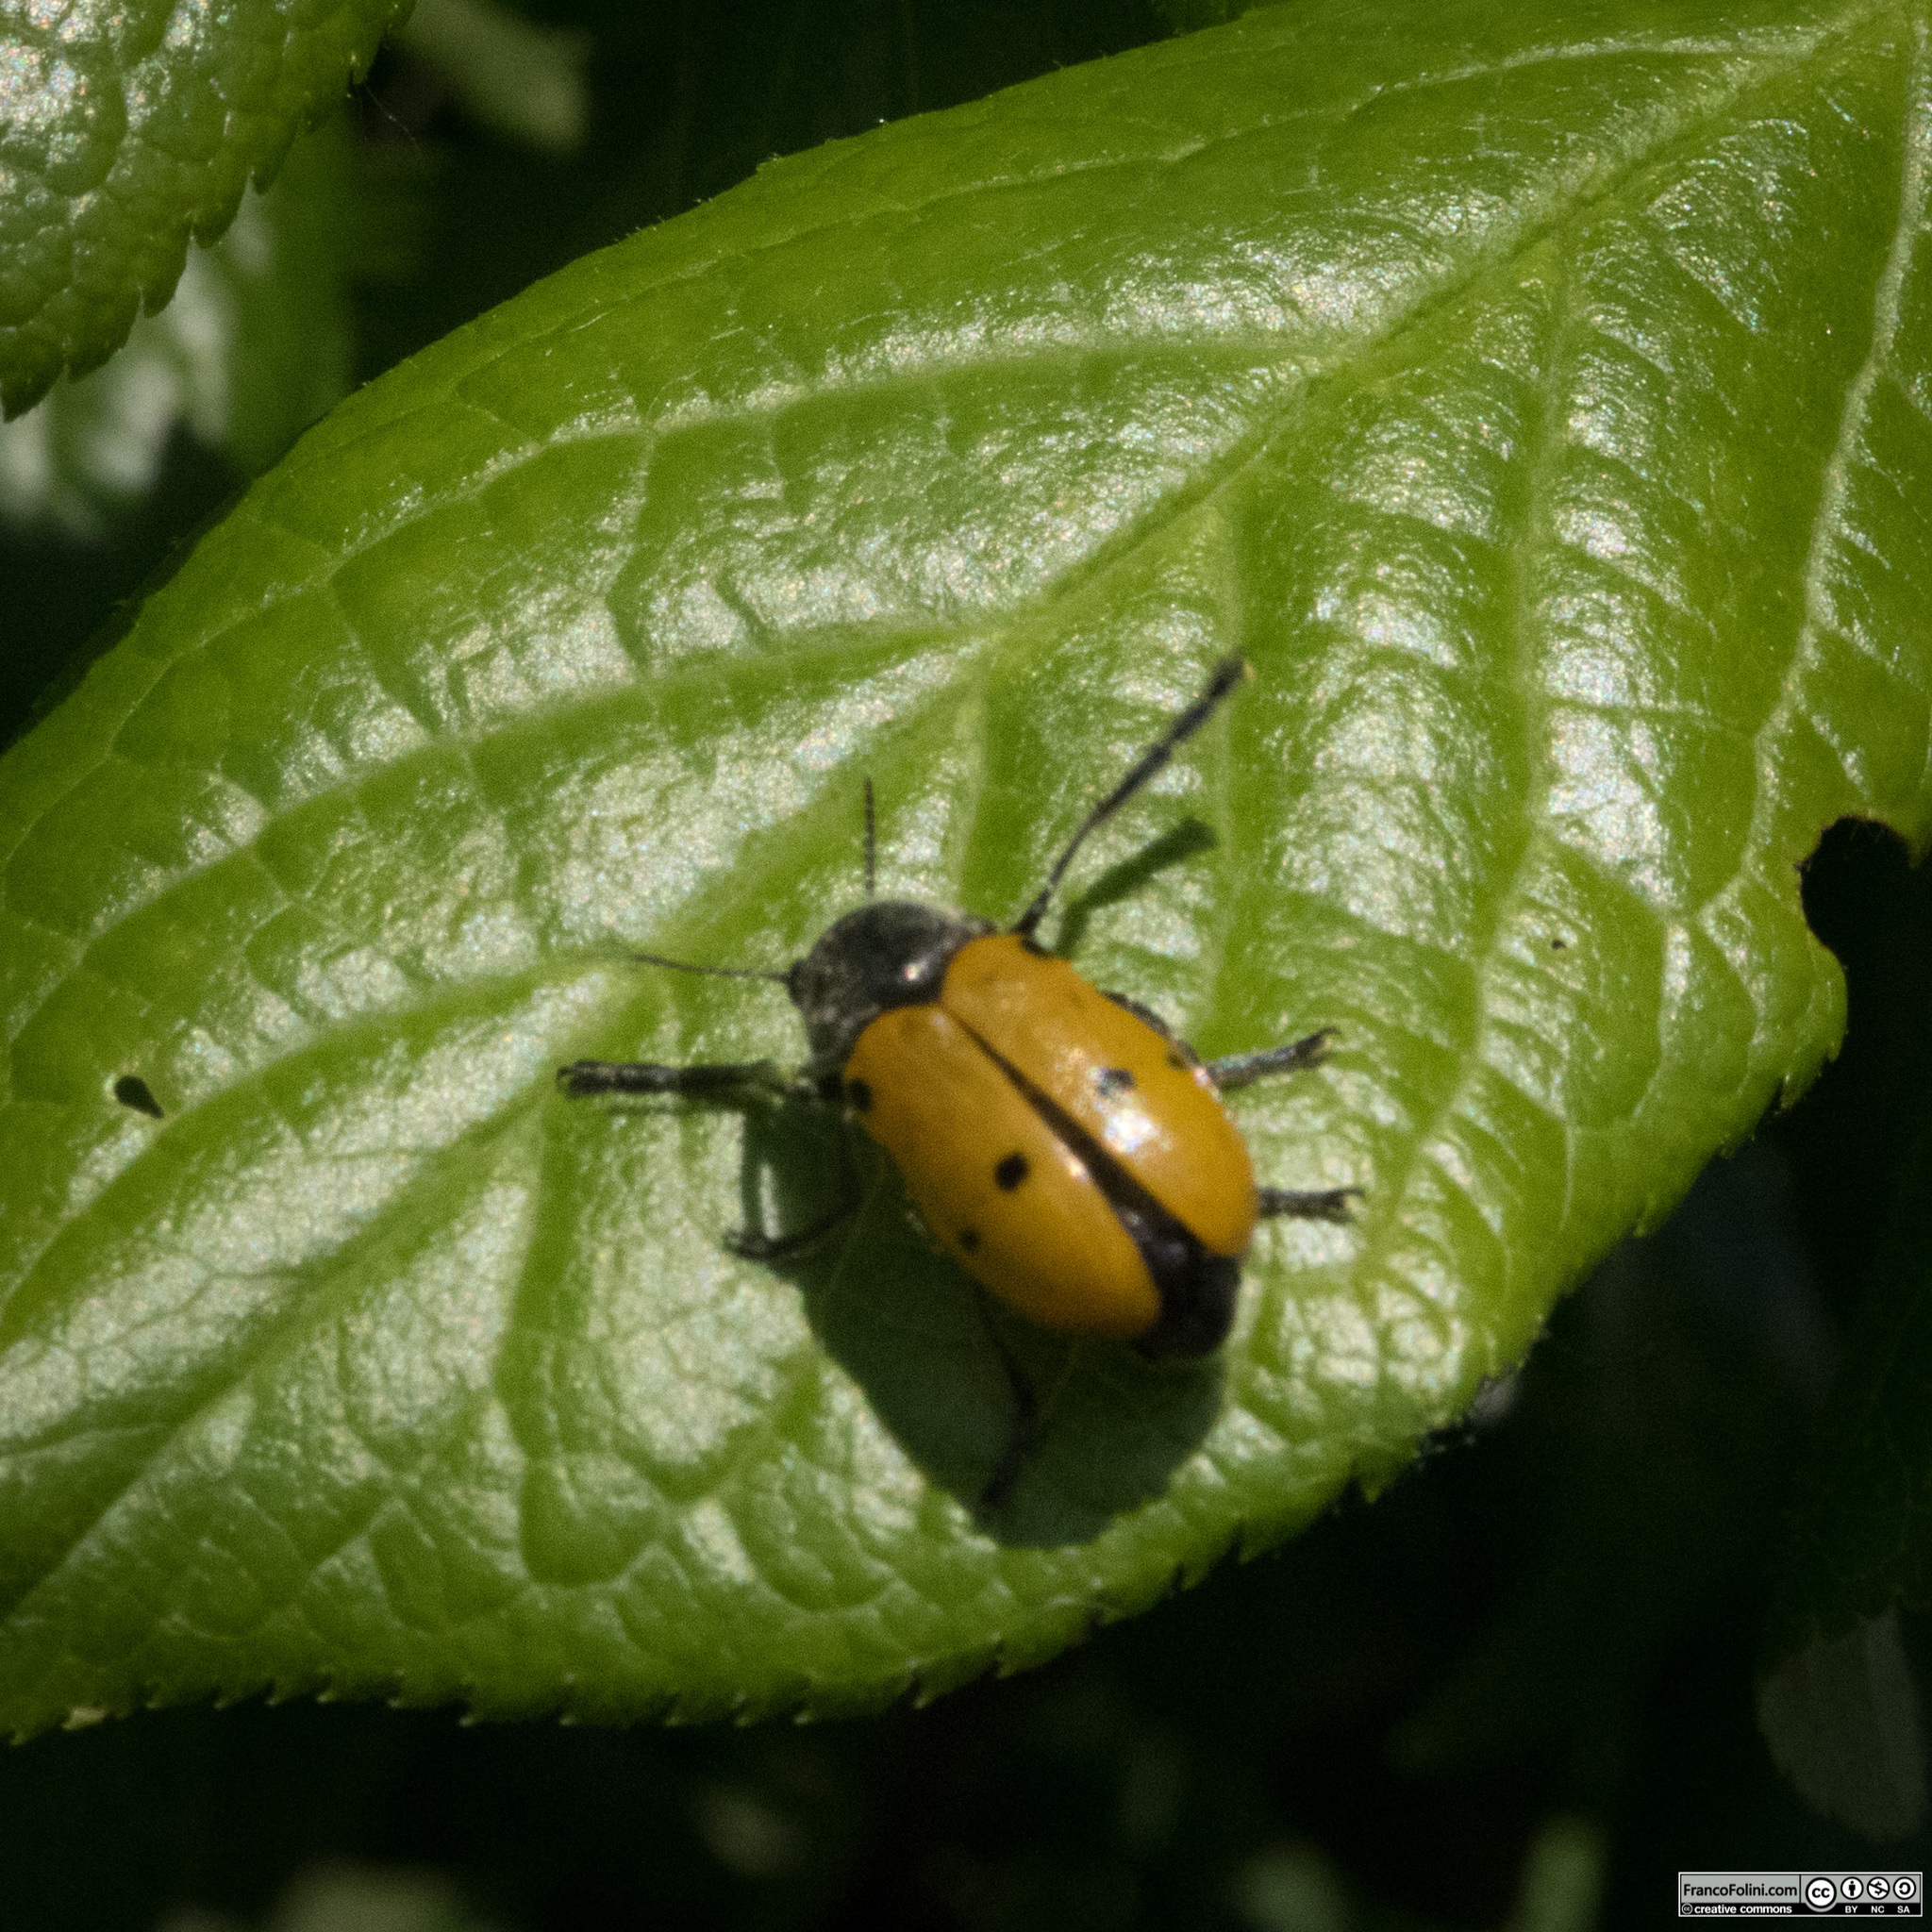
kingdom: Animalia
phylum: Arthropoda
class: Insecta
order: Coleoptera
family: Chrysomelidae
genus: Lachnaia
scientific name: Lachnaia italica
